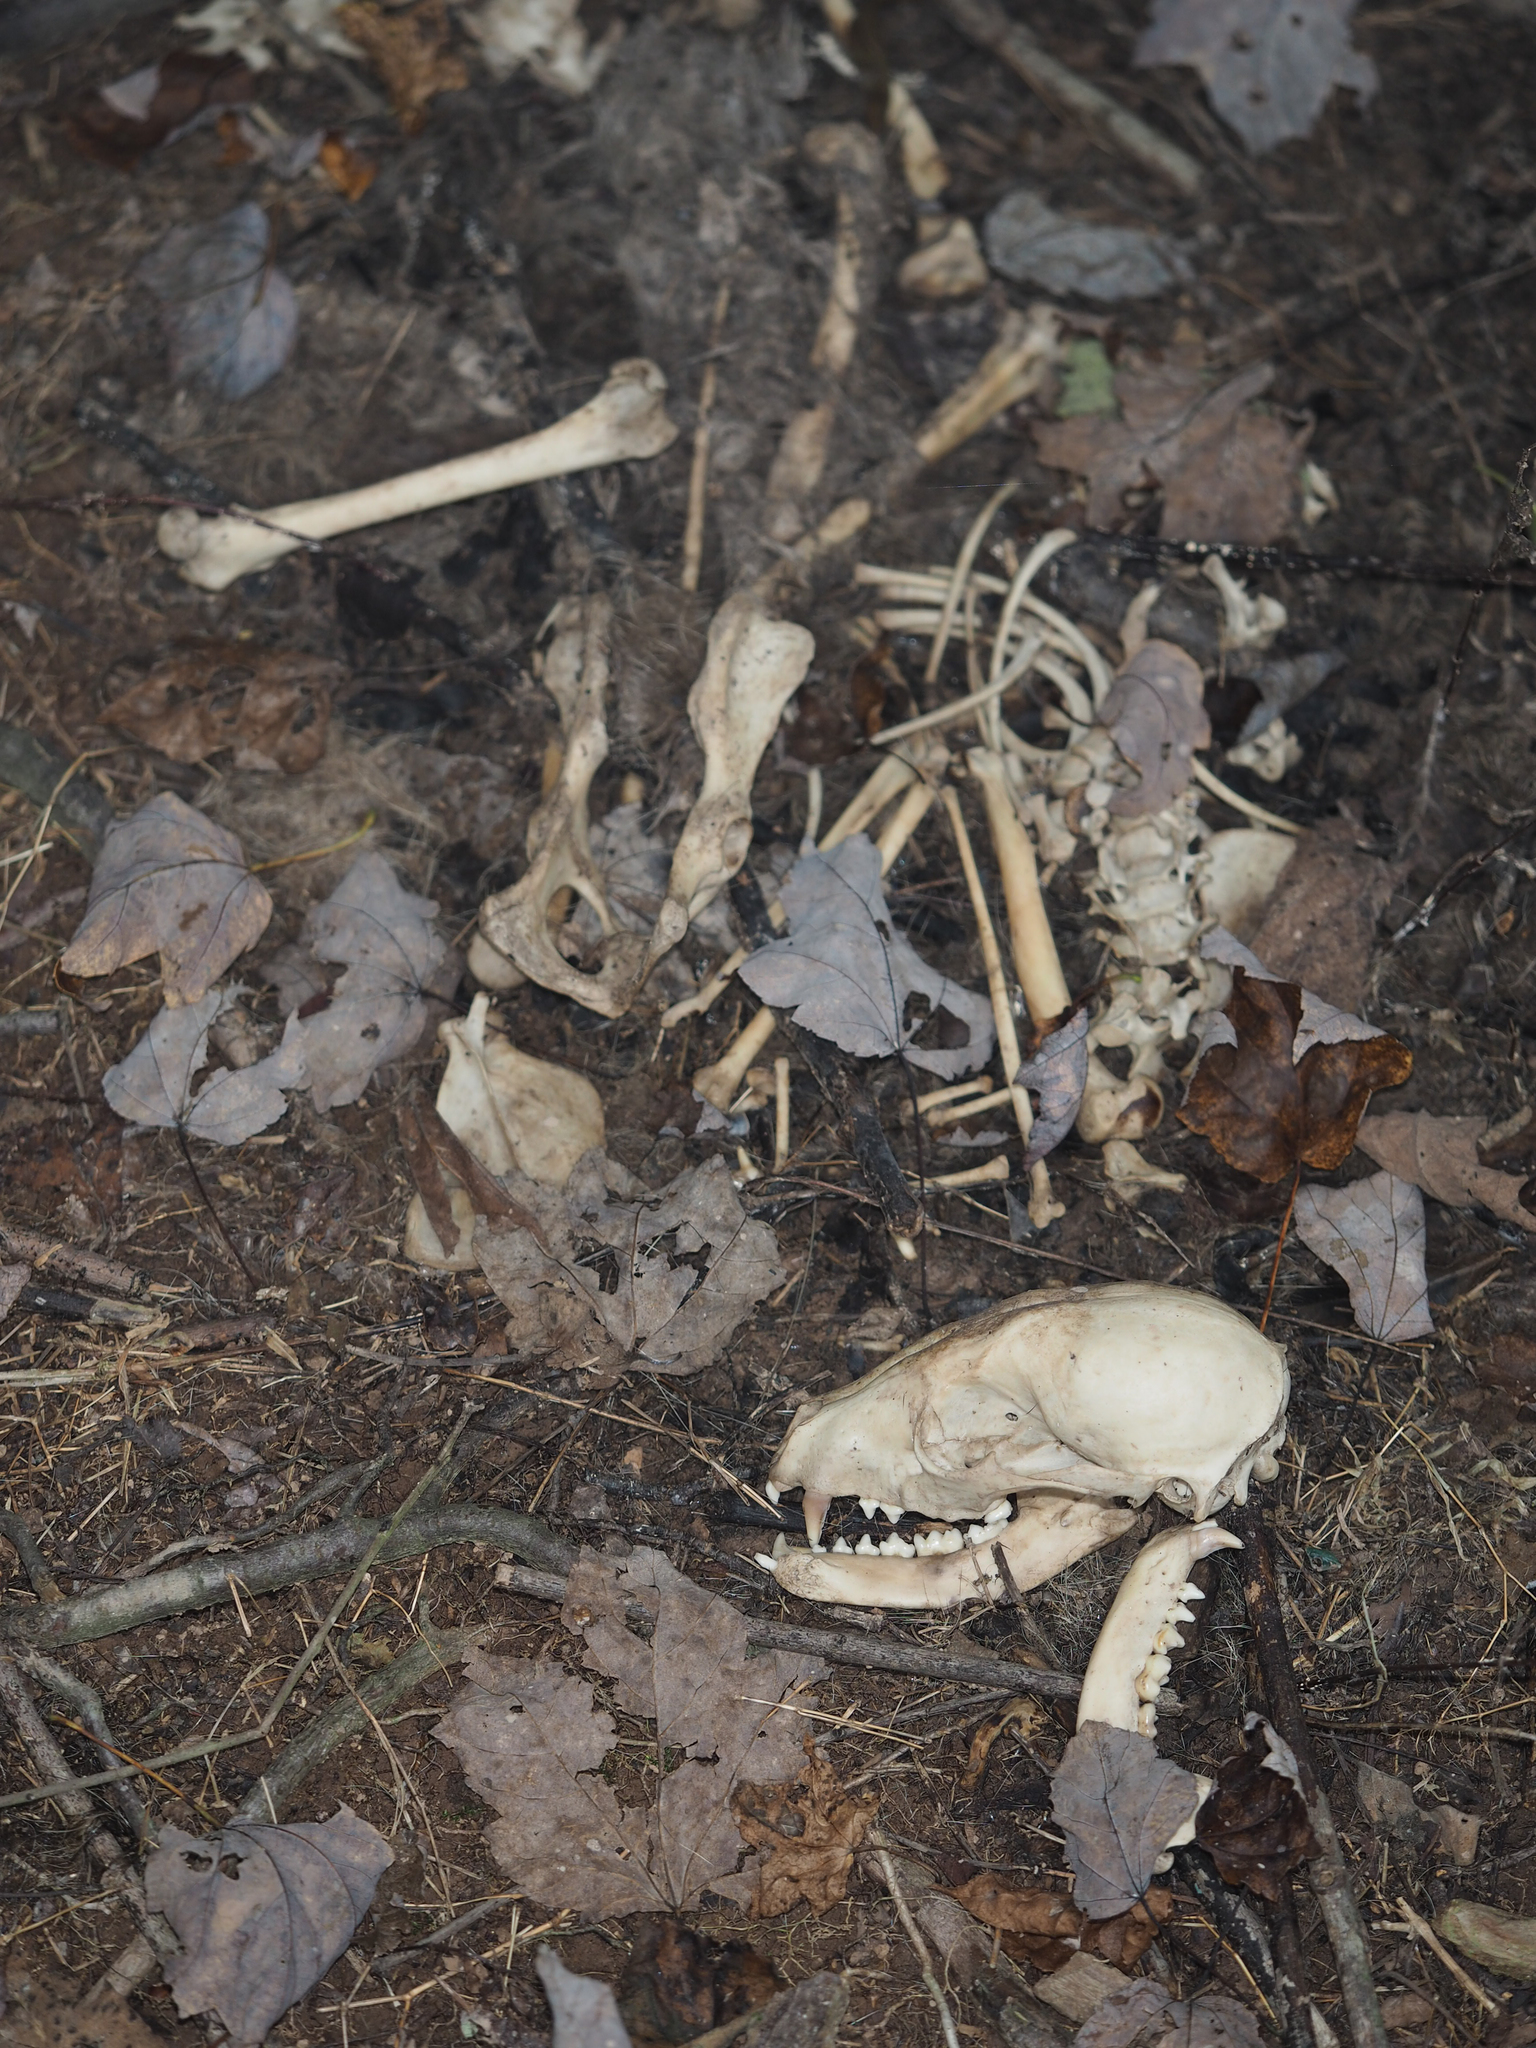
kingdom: Animalia
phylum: Chordata
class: Mammalia
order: Carnivora
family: Procyonidae
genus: Procyon
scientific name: Procyon lotor
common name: Raccoon
